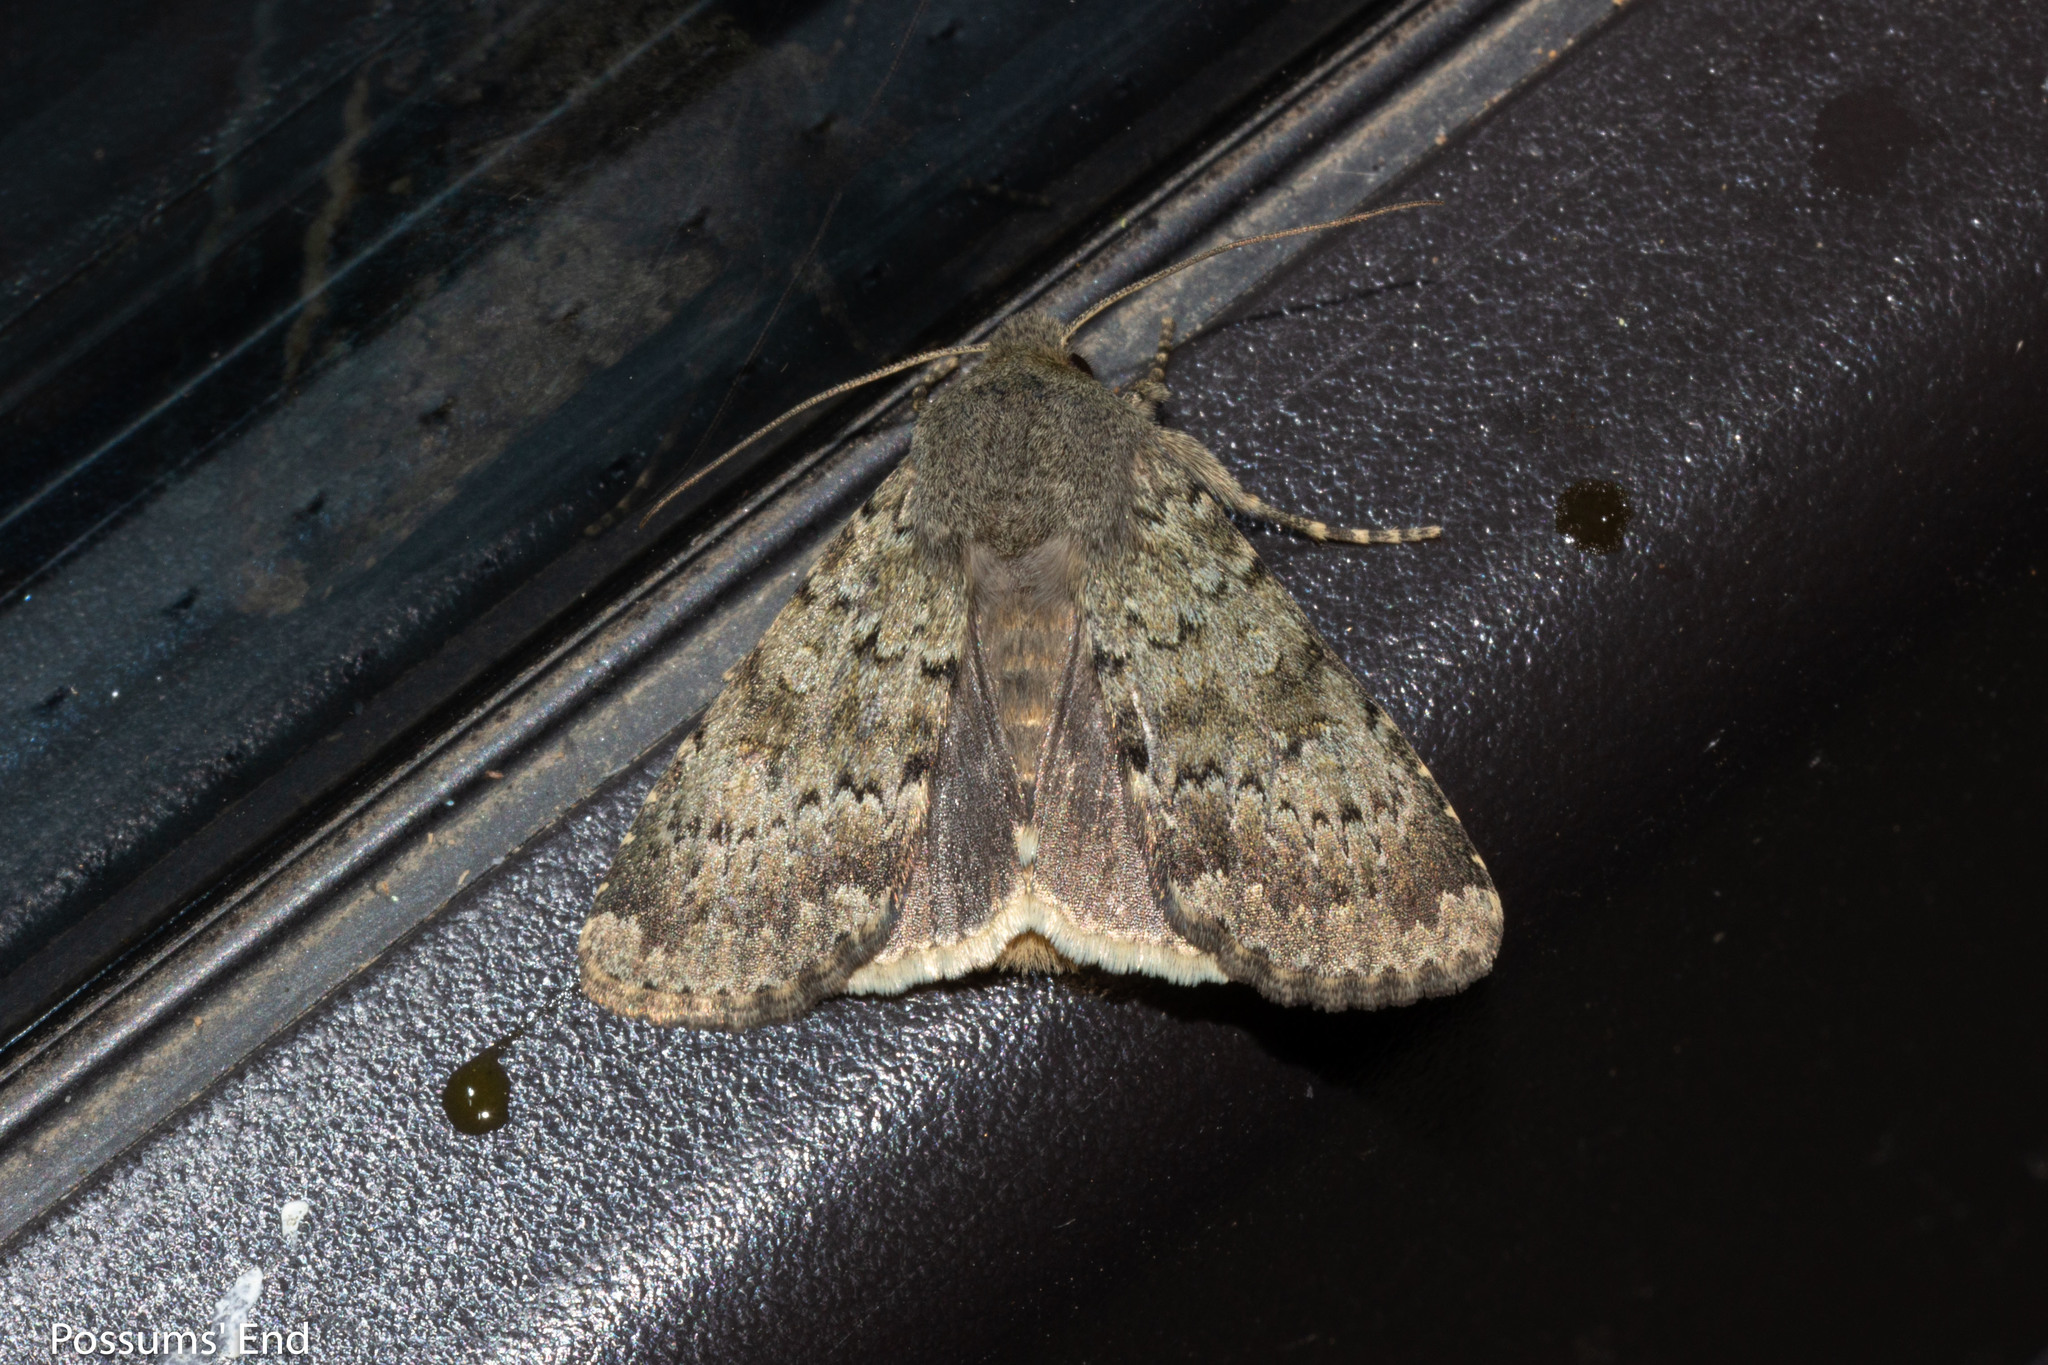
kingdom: Animalia
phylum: Arthropoda
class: Insecta
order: Lepidoptera
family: Noctuidae
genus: Ichneutica
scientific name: Ichneutica moderata
